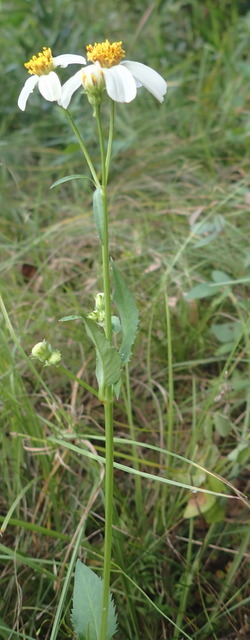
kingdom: Plantae
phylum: Tracheophyta
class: Magnoliopsida
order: Asterales
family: Asteraceae
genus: Bidens
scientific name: Bidens alba
